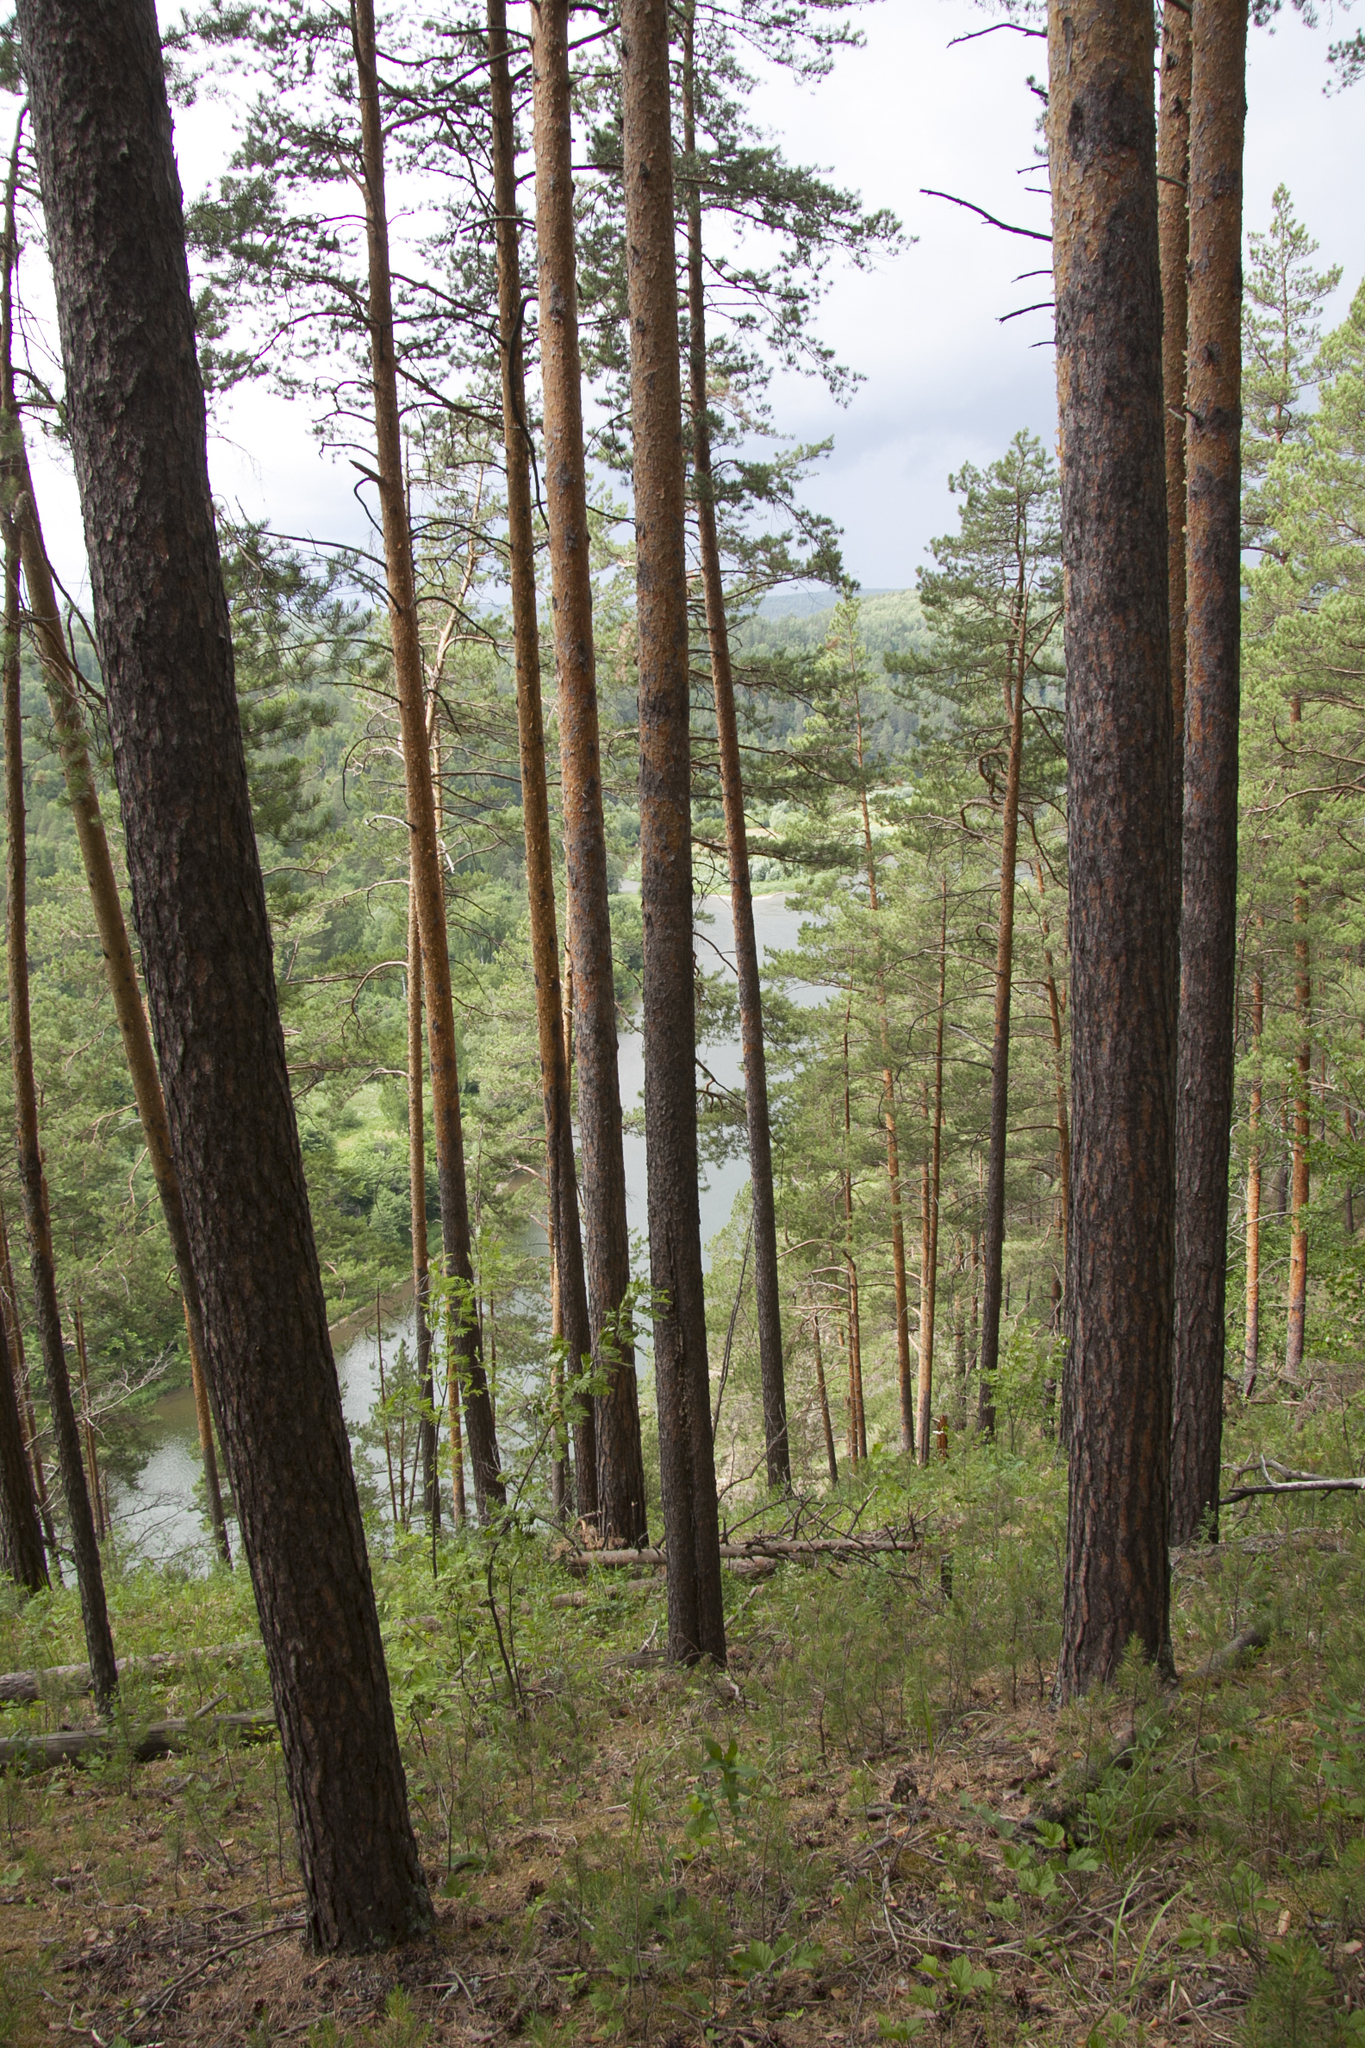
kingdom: Plantae
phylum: Tracheophyta
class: Pinopsida
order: Pinales
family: Pinaceae
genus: Pinus
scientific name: Pinus sylvestris
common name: Scots pine
